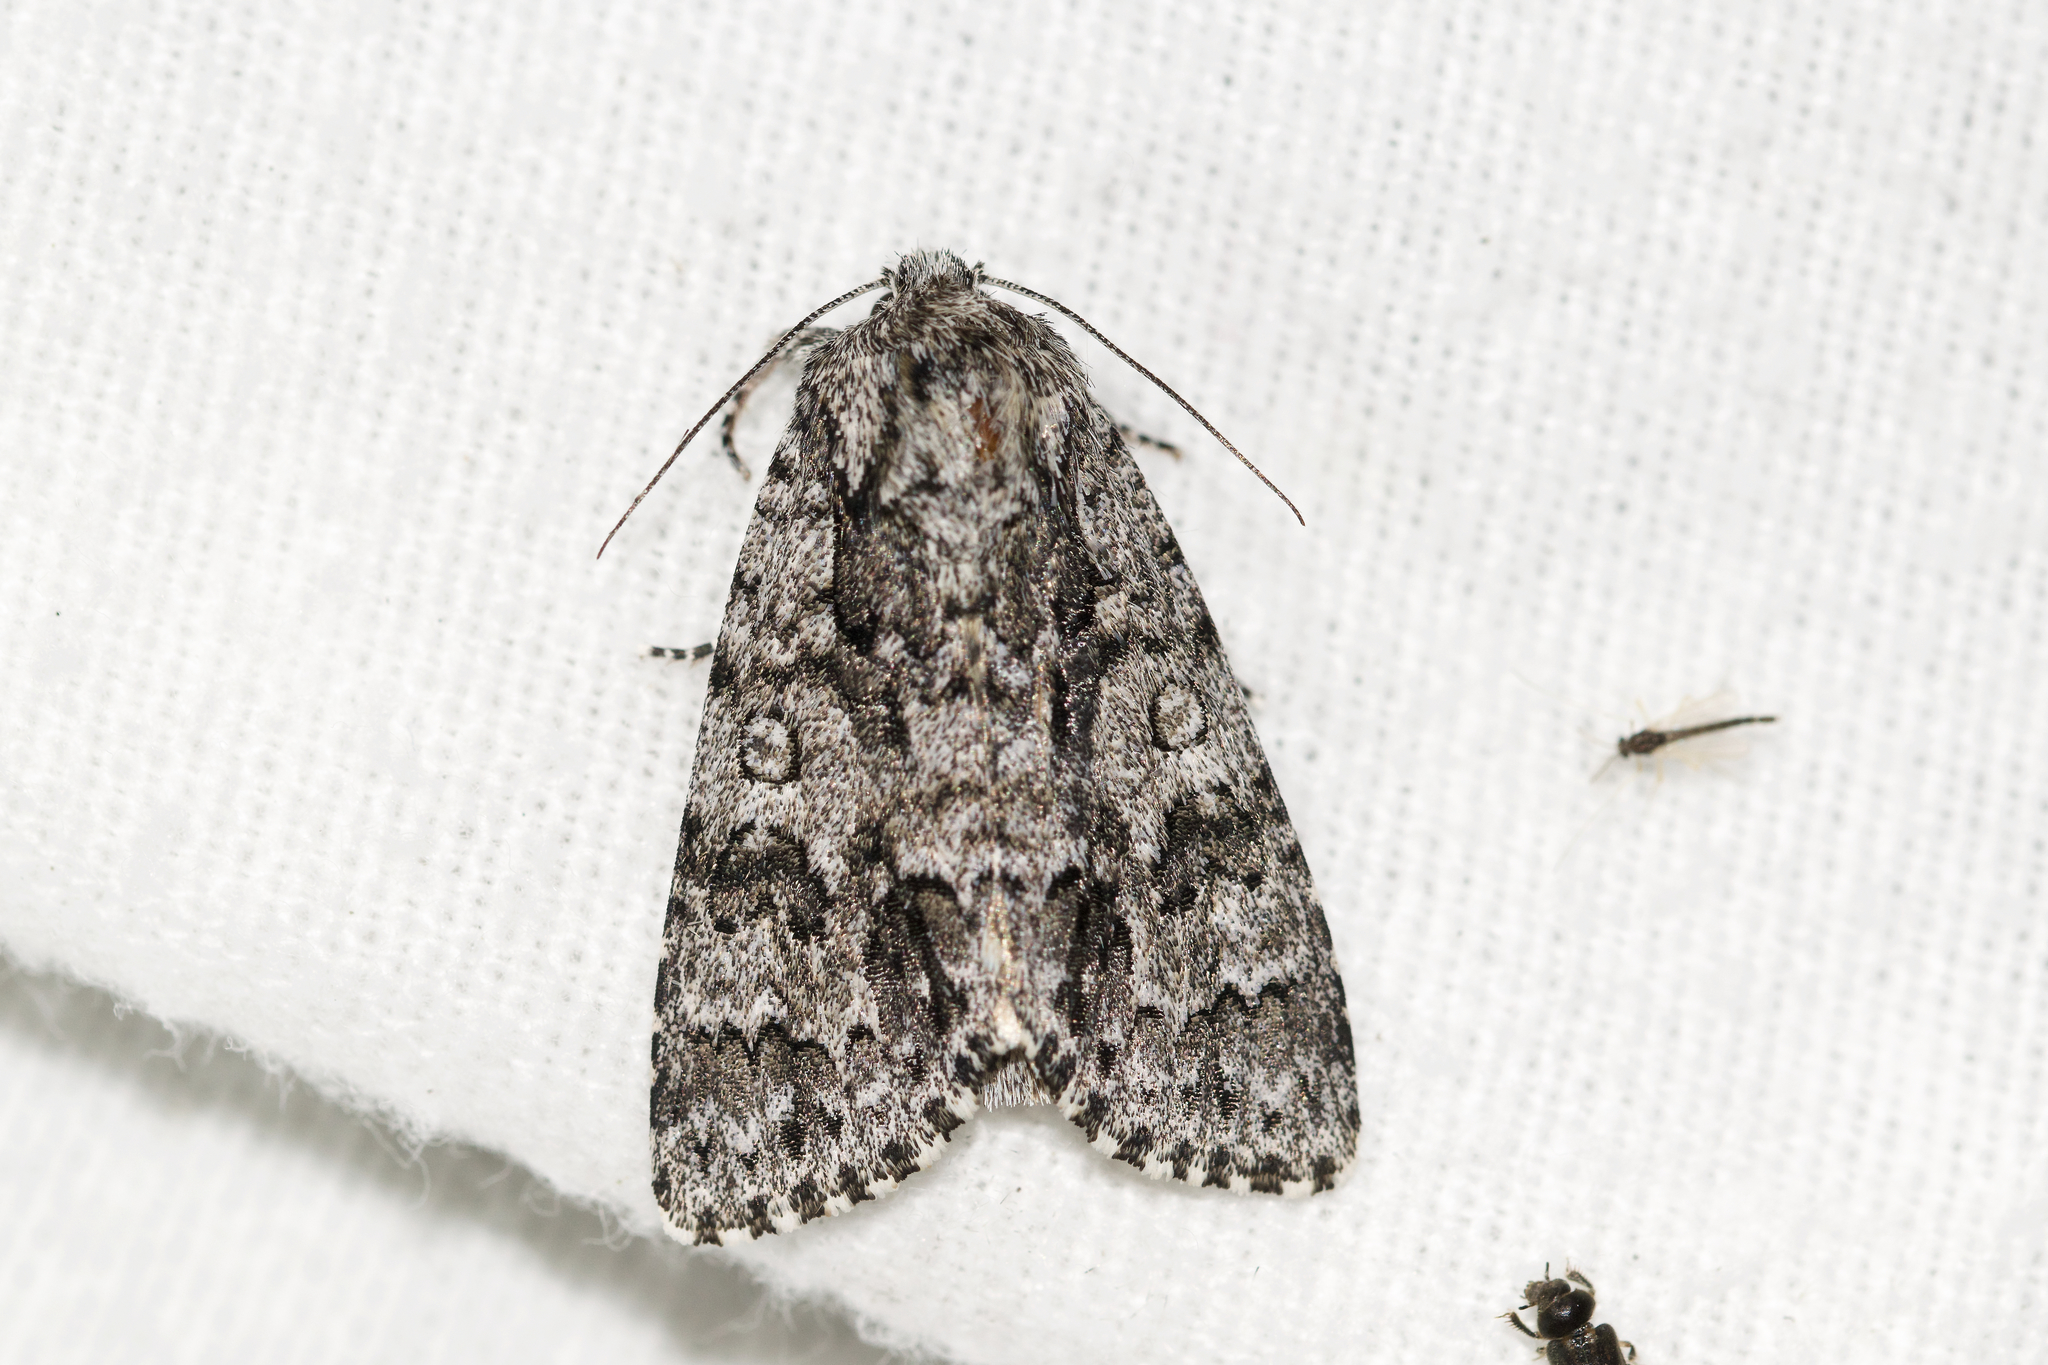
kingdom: Animalia
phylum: Arthropoda
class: Insecta
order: Lepidoptera
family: Noctuidae
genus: Acronicta
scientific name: Acronicta impressa
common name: Impressed dagger
